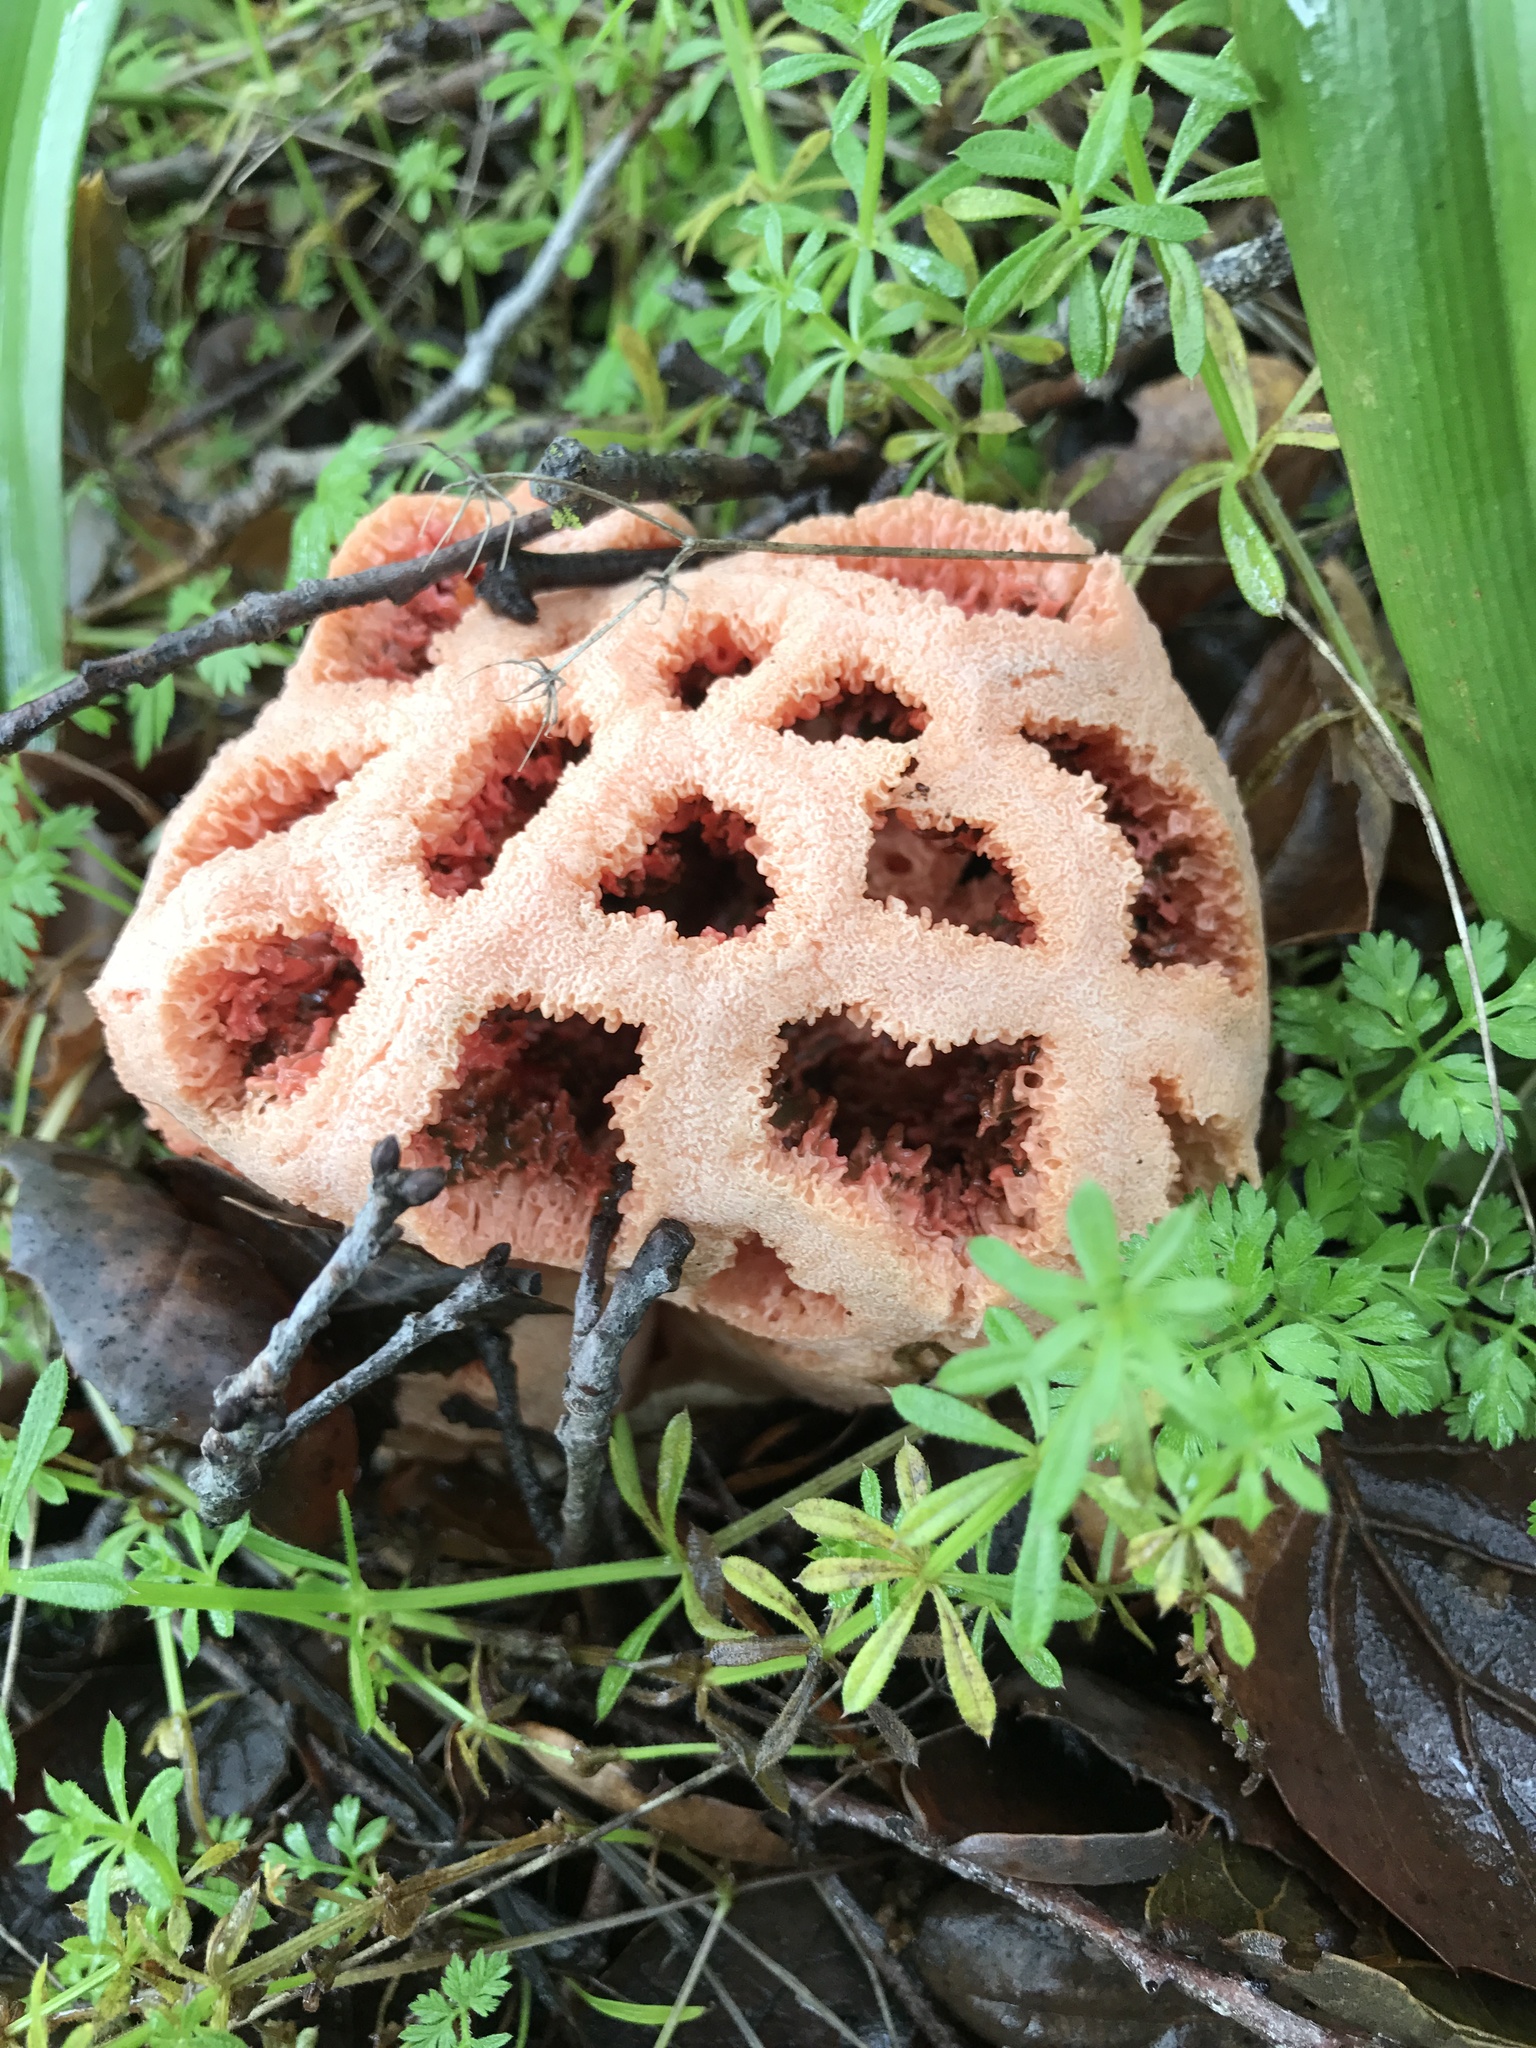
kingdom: Fungi
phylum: Basidiomycota
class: Agaricomycetes
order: Phallales
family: Phallaceae
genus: Clathrus
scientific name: Clathrus ruber
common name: Red cage
